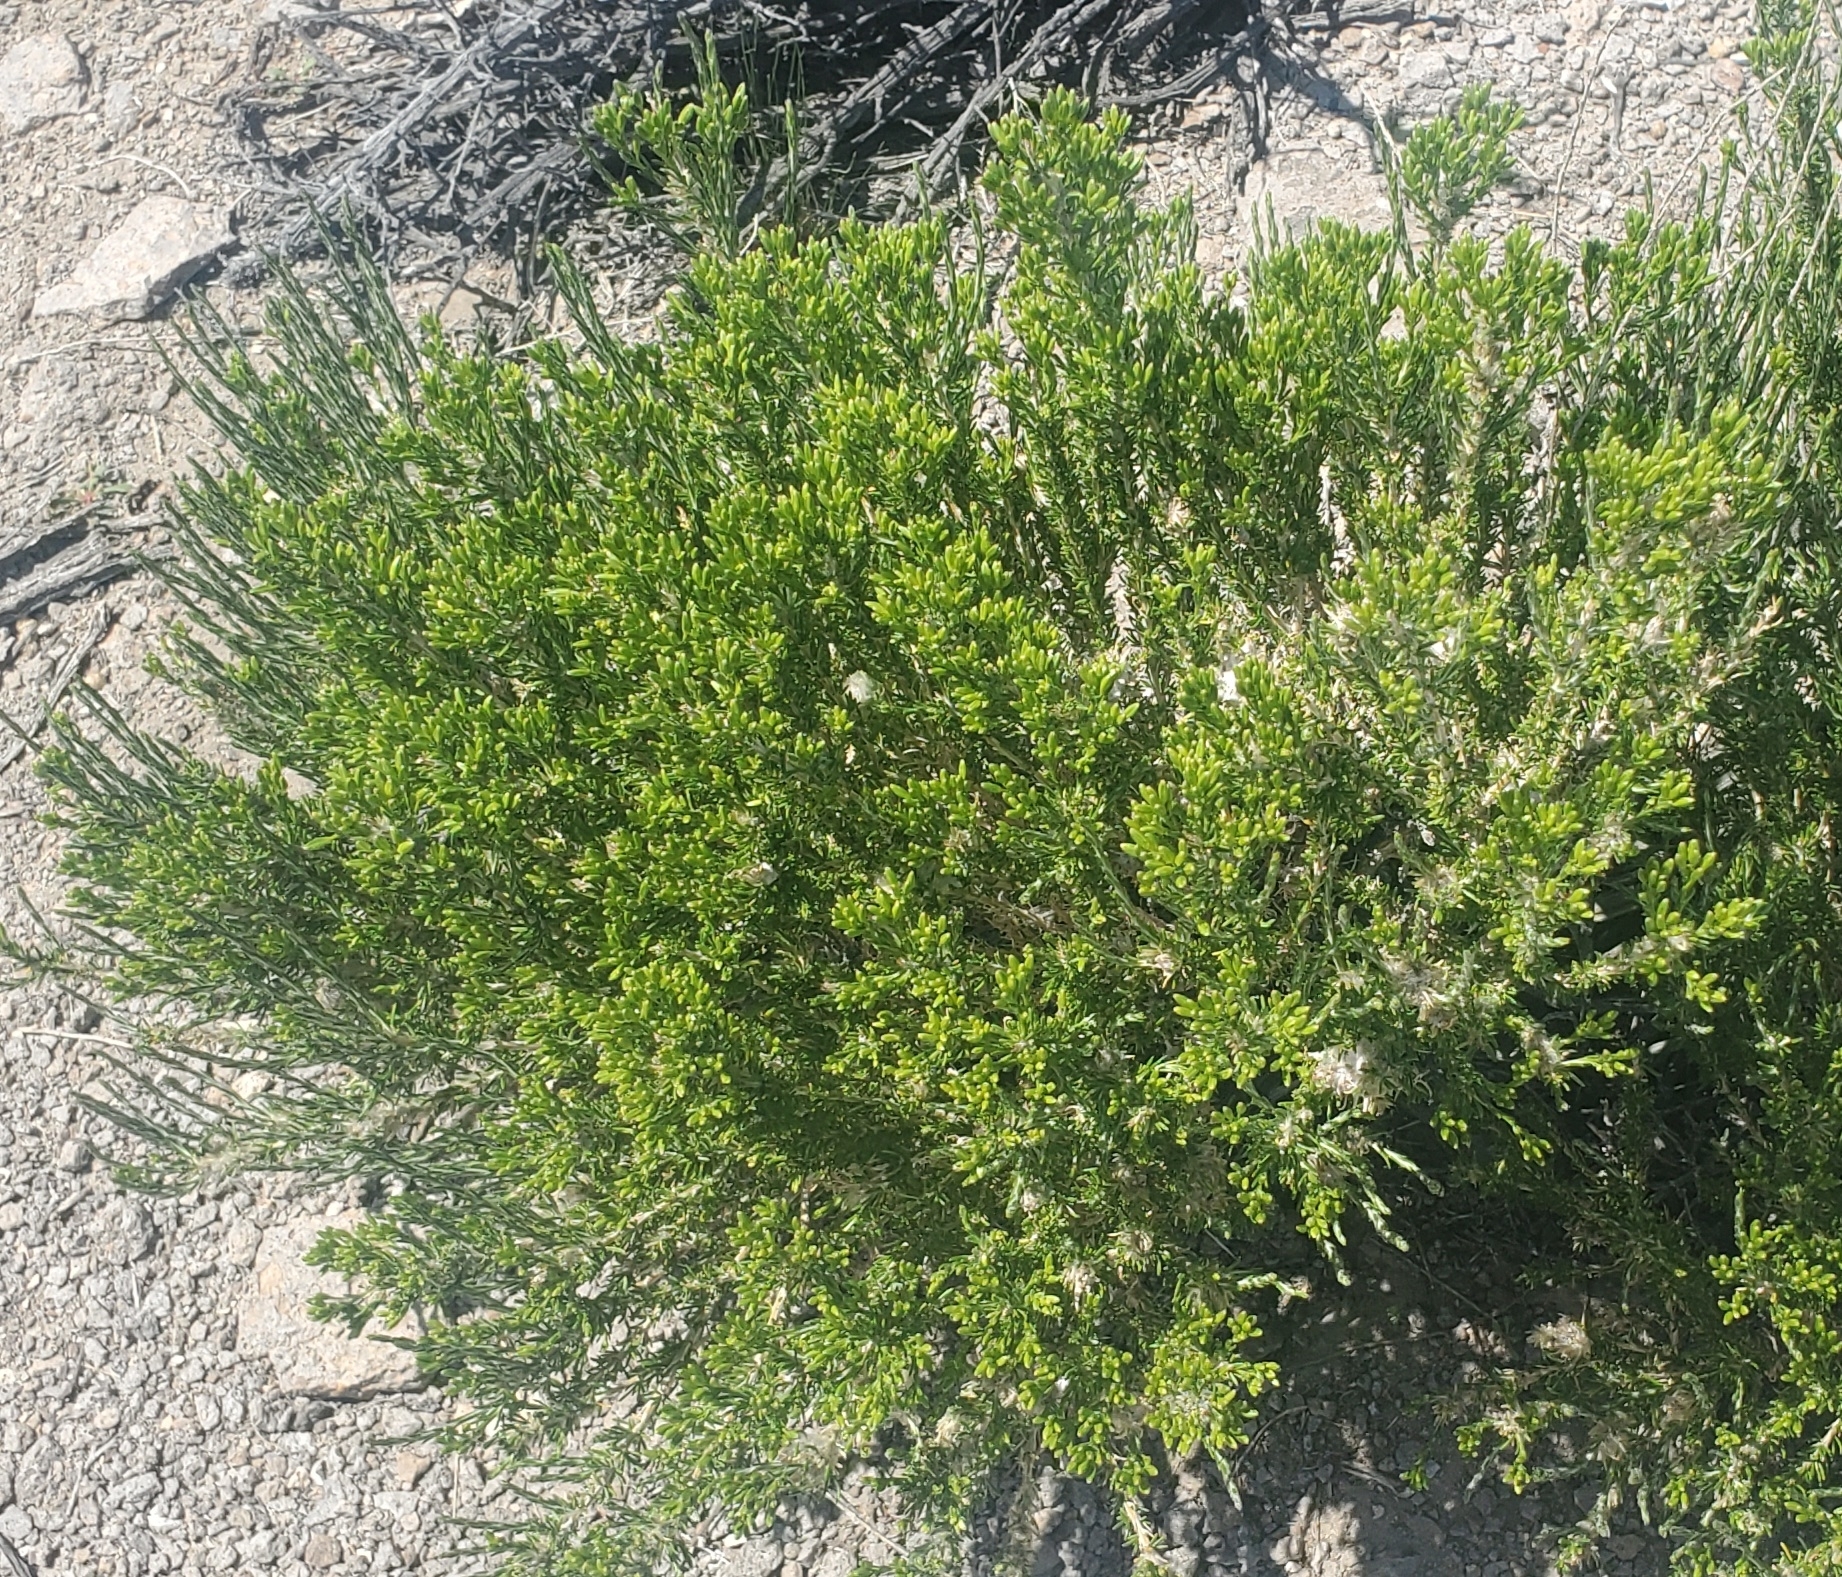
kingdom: Plantae
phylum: Tracheophyta
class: Magnoliopsida
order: Asterales
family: Asteraceae
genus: Tetradymia
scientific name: Tetradymia glabrata
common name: Smooth tetradymia
